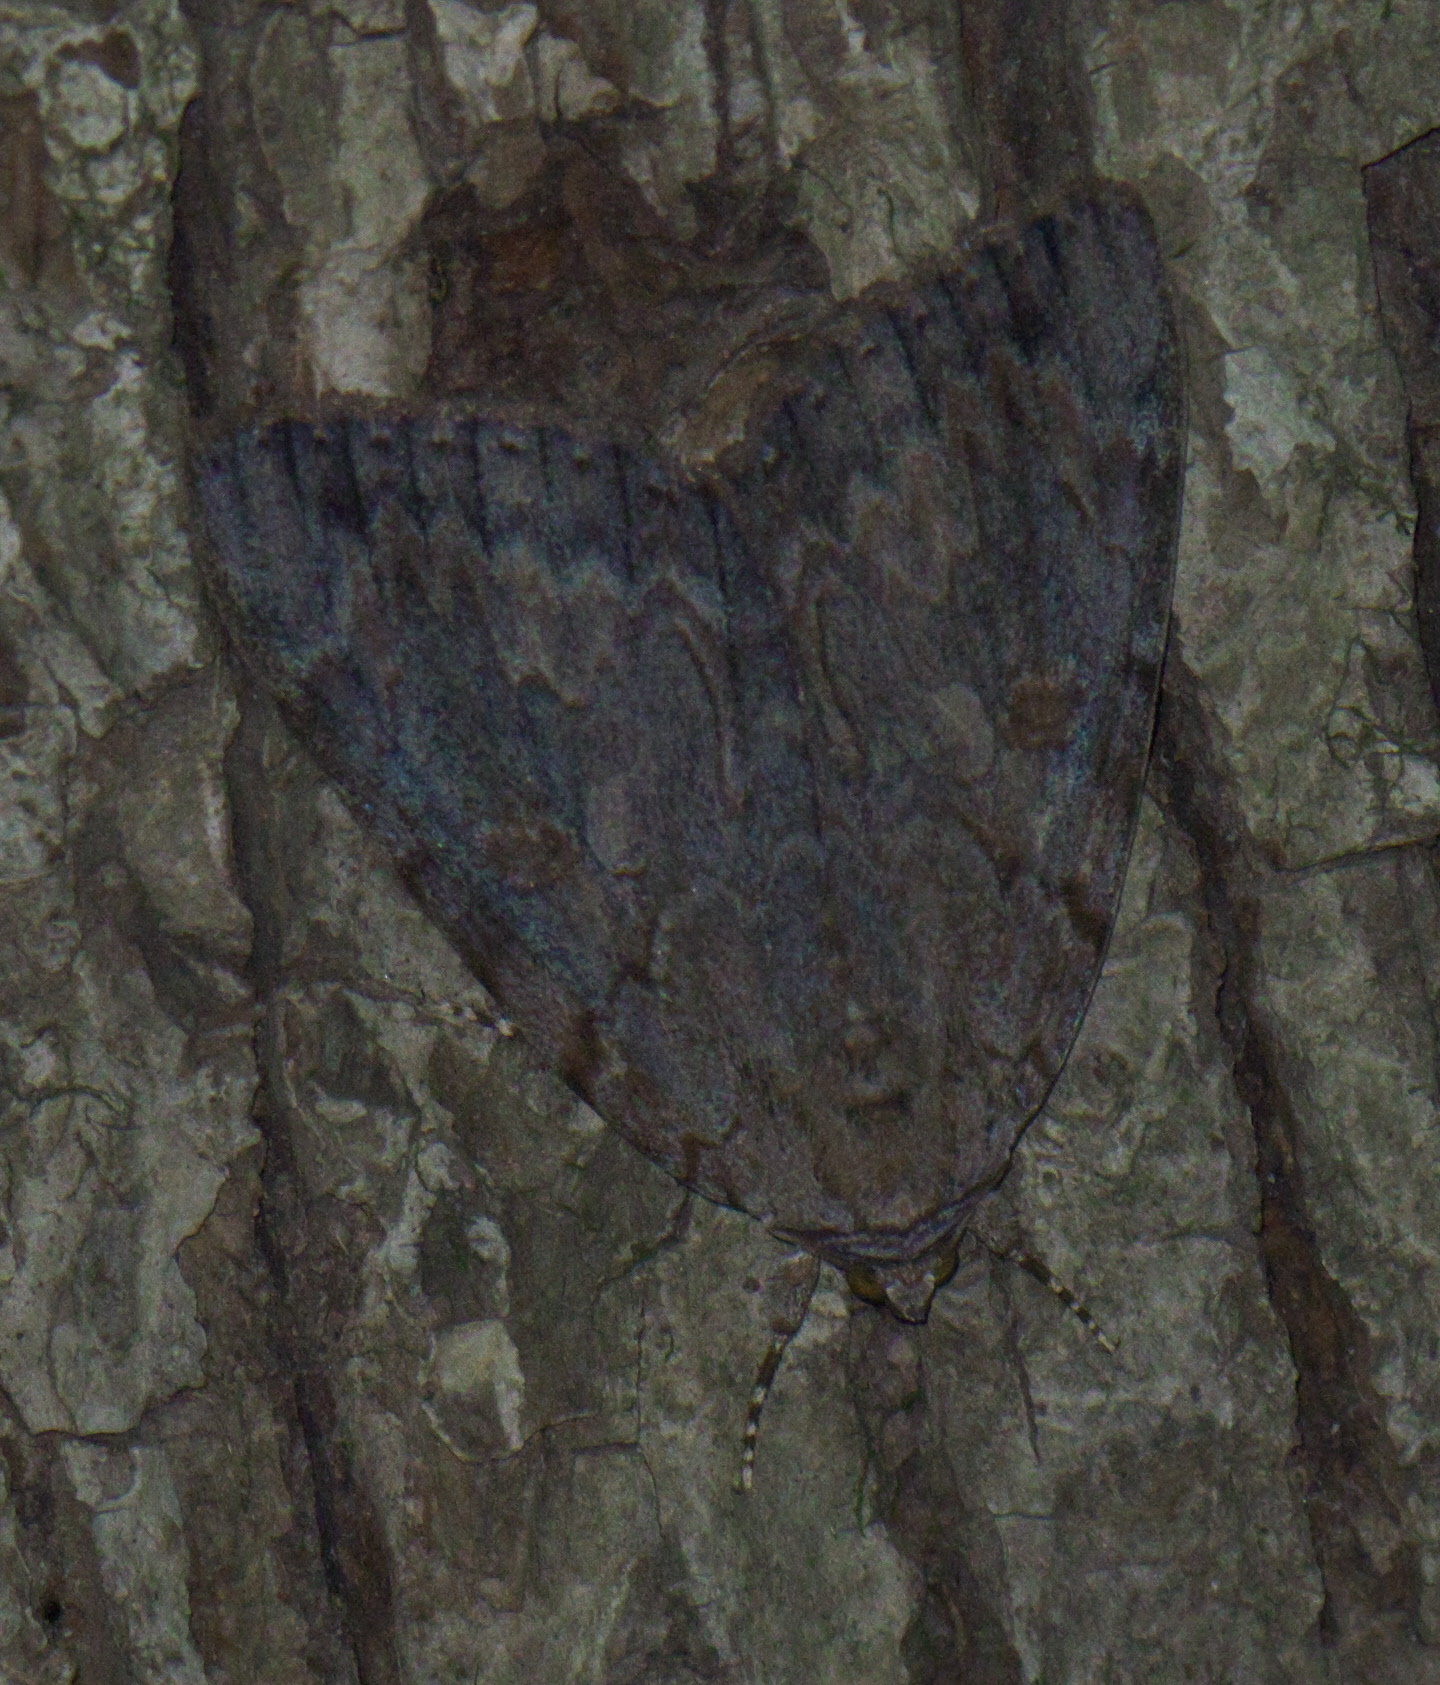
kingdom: Animalia
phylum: Arthropoda
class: Insecta
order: Lepidoptera
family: Erebidae
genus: Catocala
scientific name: Catocala agrippina
